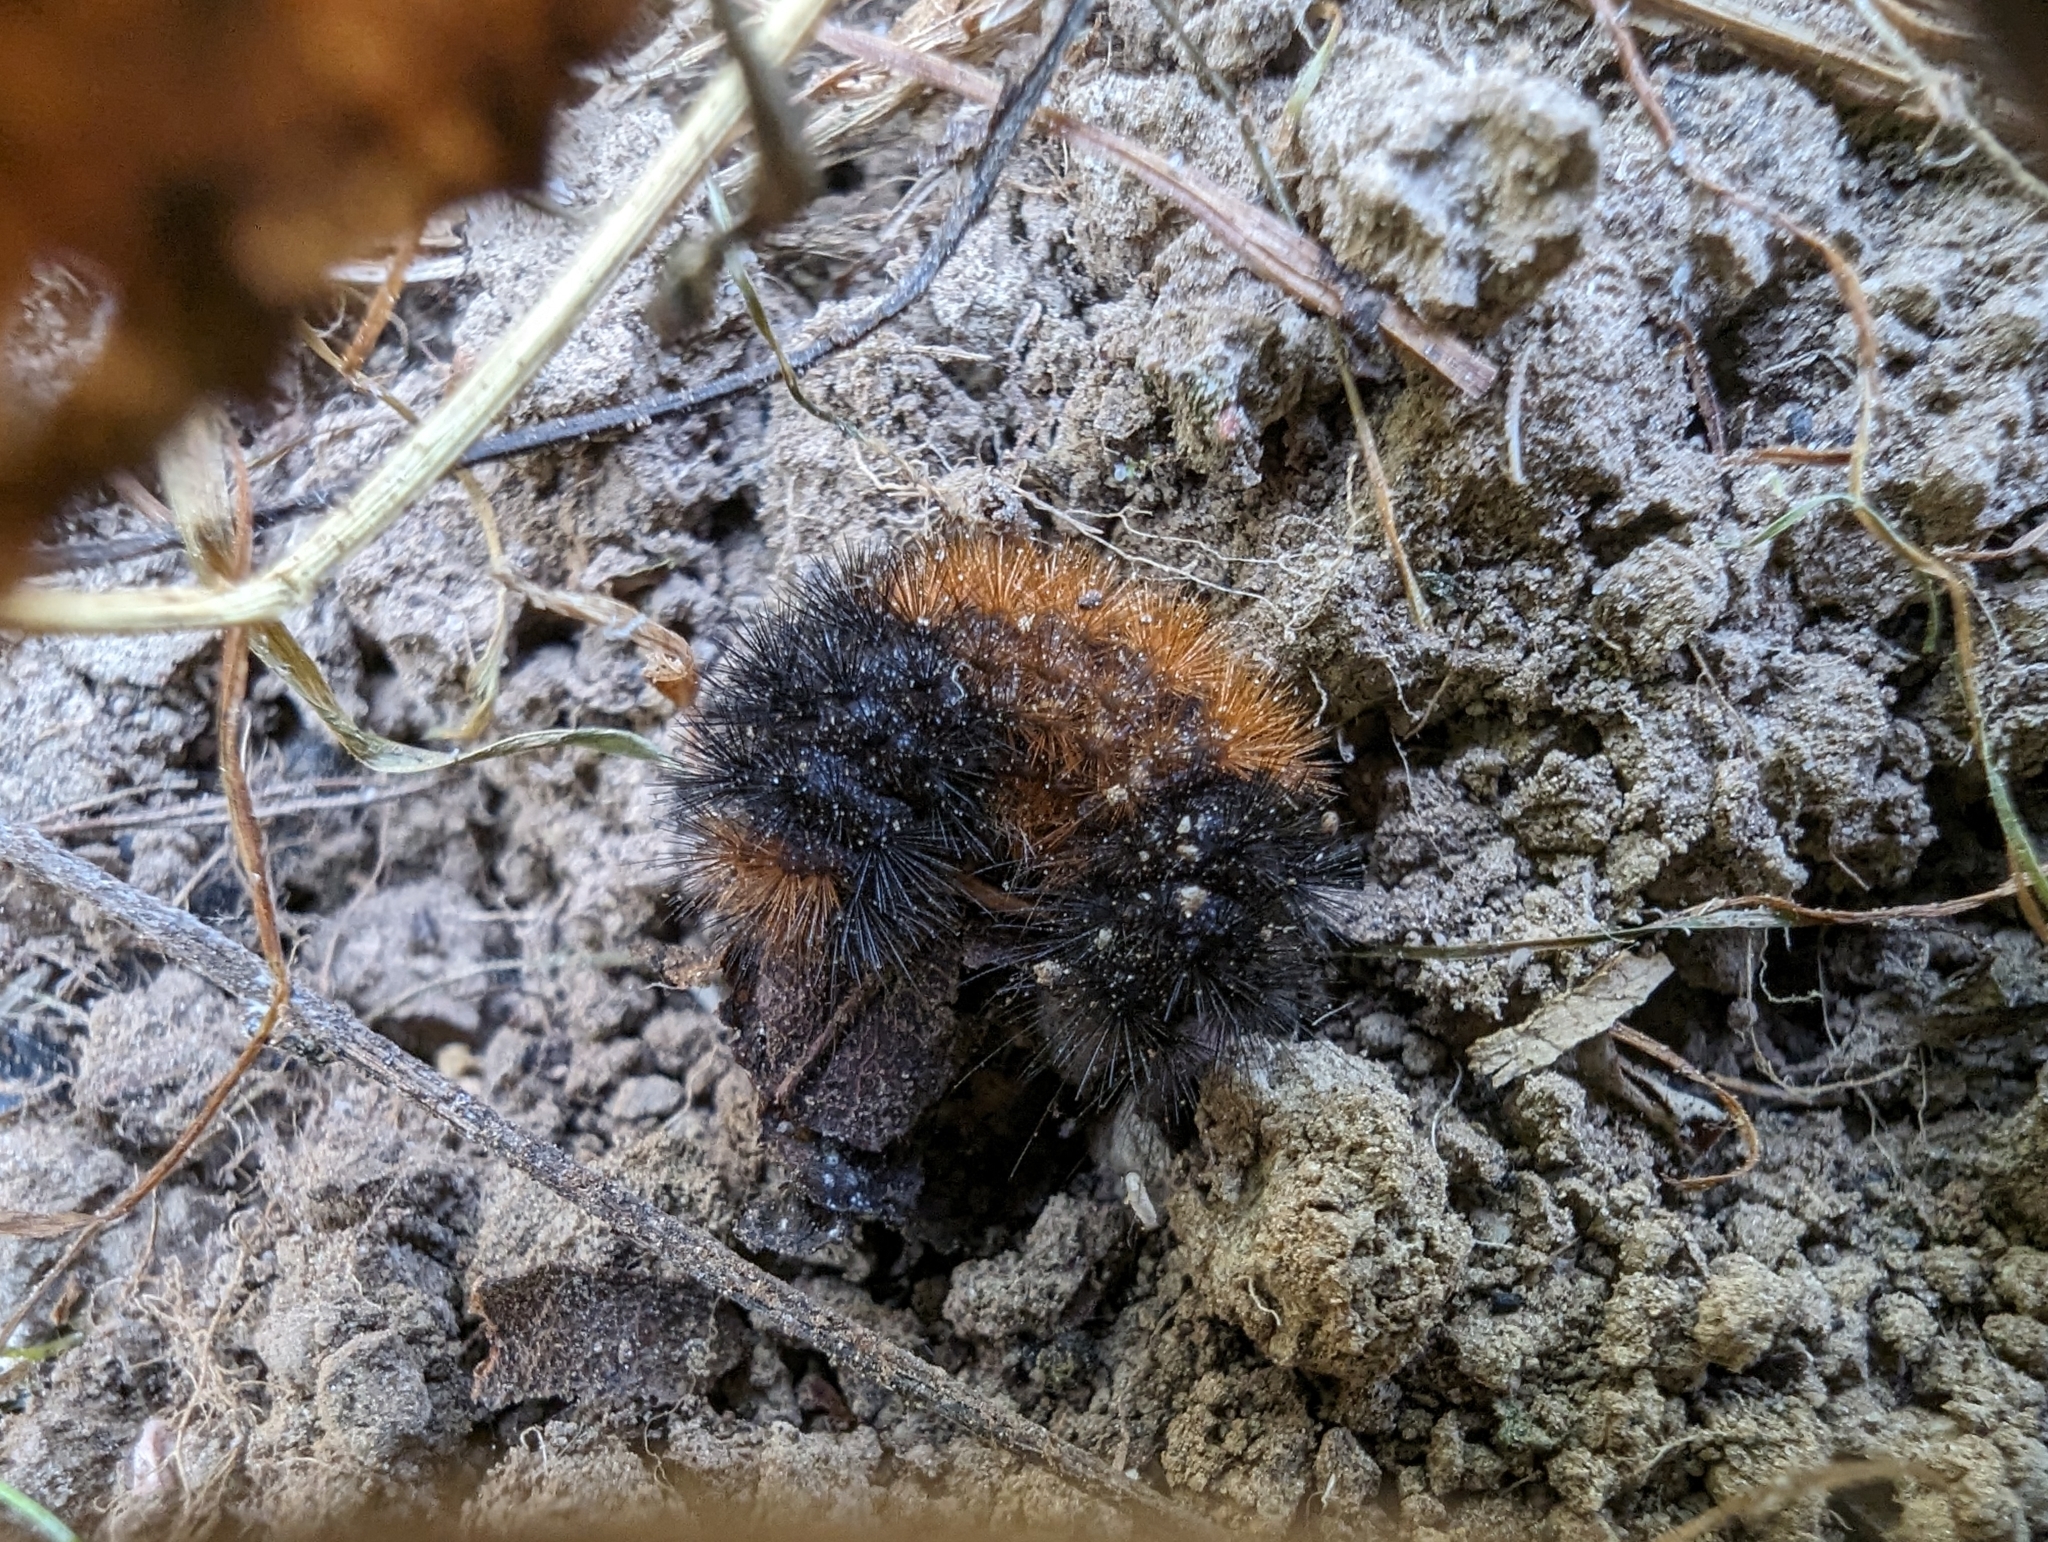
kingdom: Animalia
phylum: Arthropoda
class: Insecta
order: Lepidoptera
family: Erebidae
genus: Pyrrharctia
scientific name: Pyrrharctia isabella
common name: Isabella tiger moth
